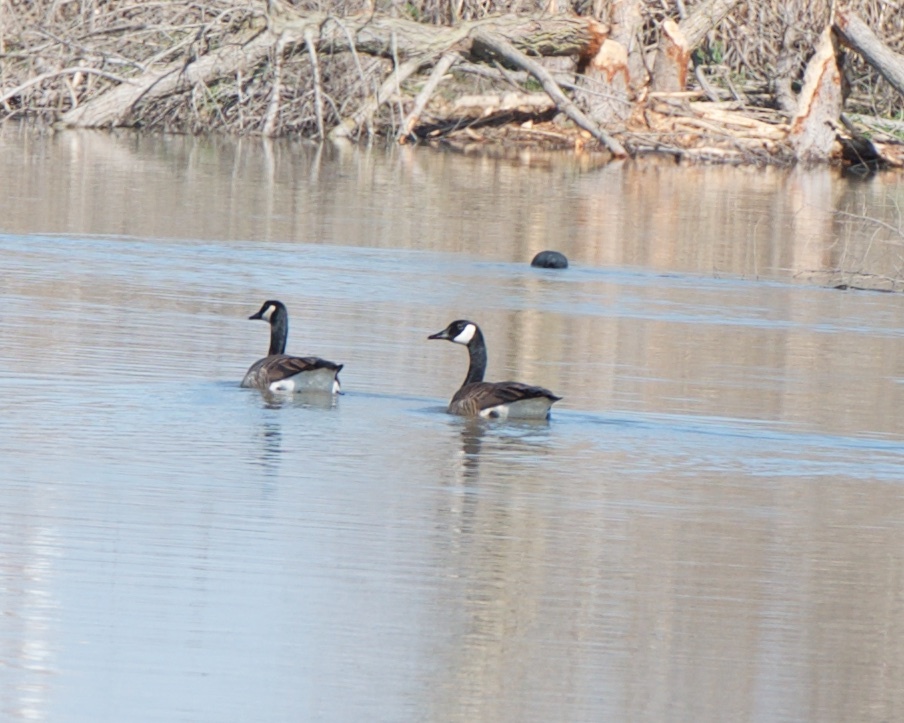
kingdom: Animalia
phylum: Chordata
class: Aves
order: Anseriformes
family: Anatidae
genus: Branta
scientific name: Branta canadensis
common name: Canada goose
